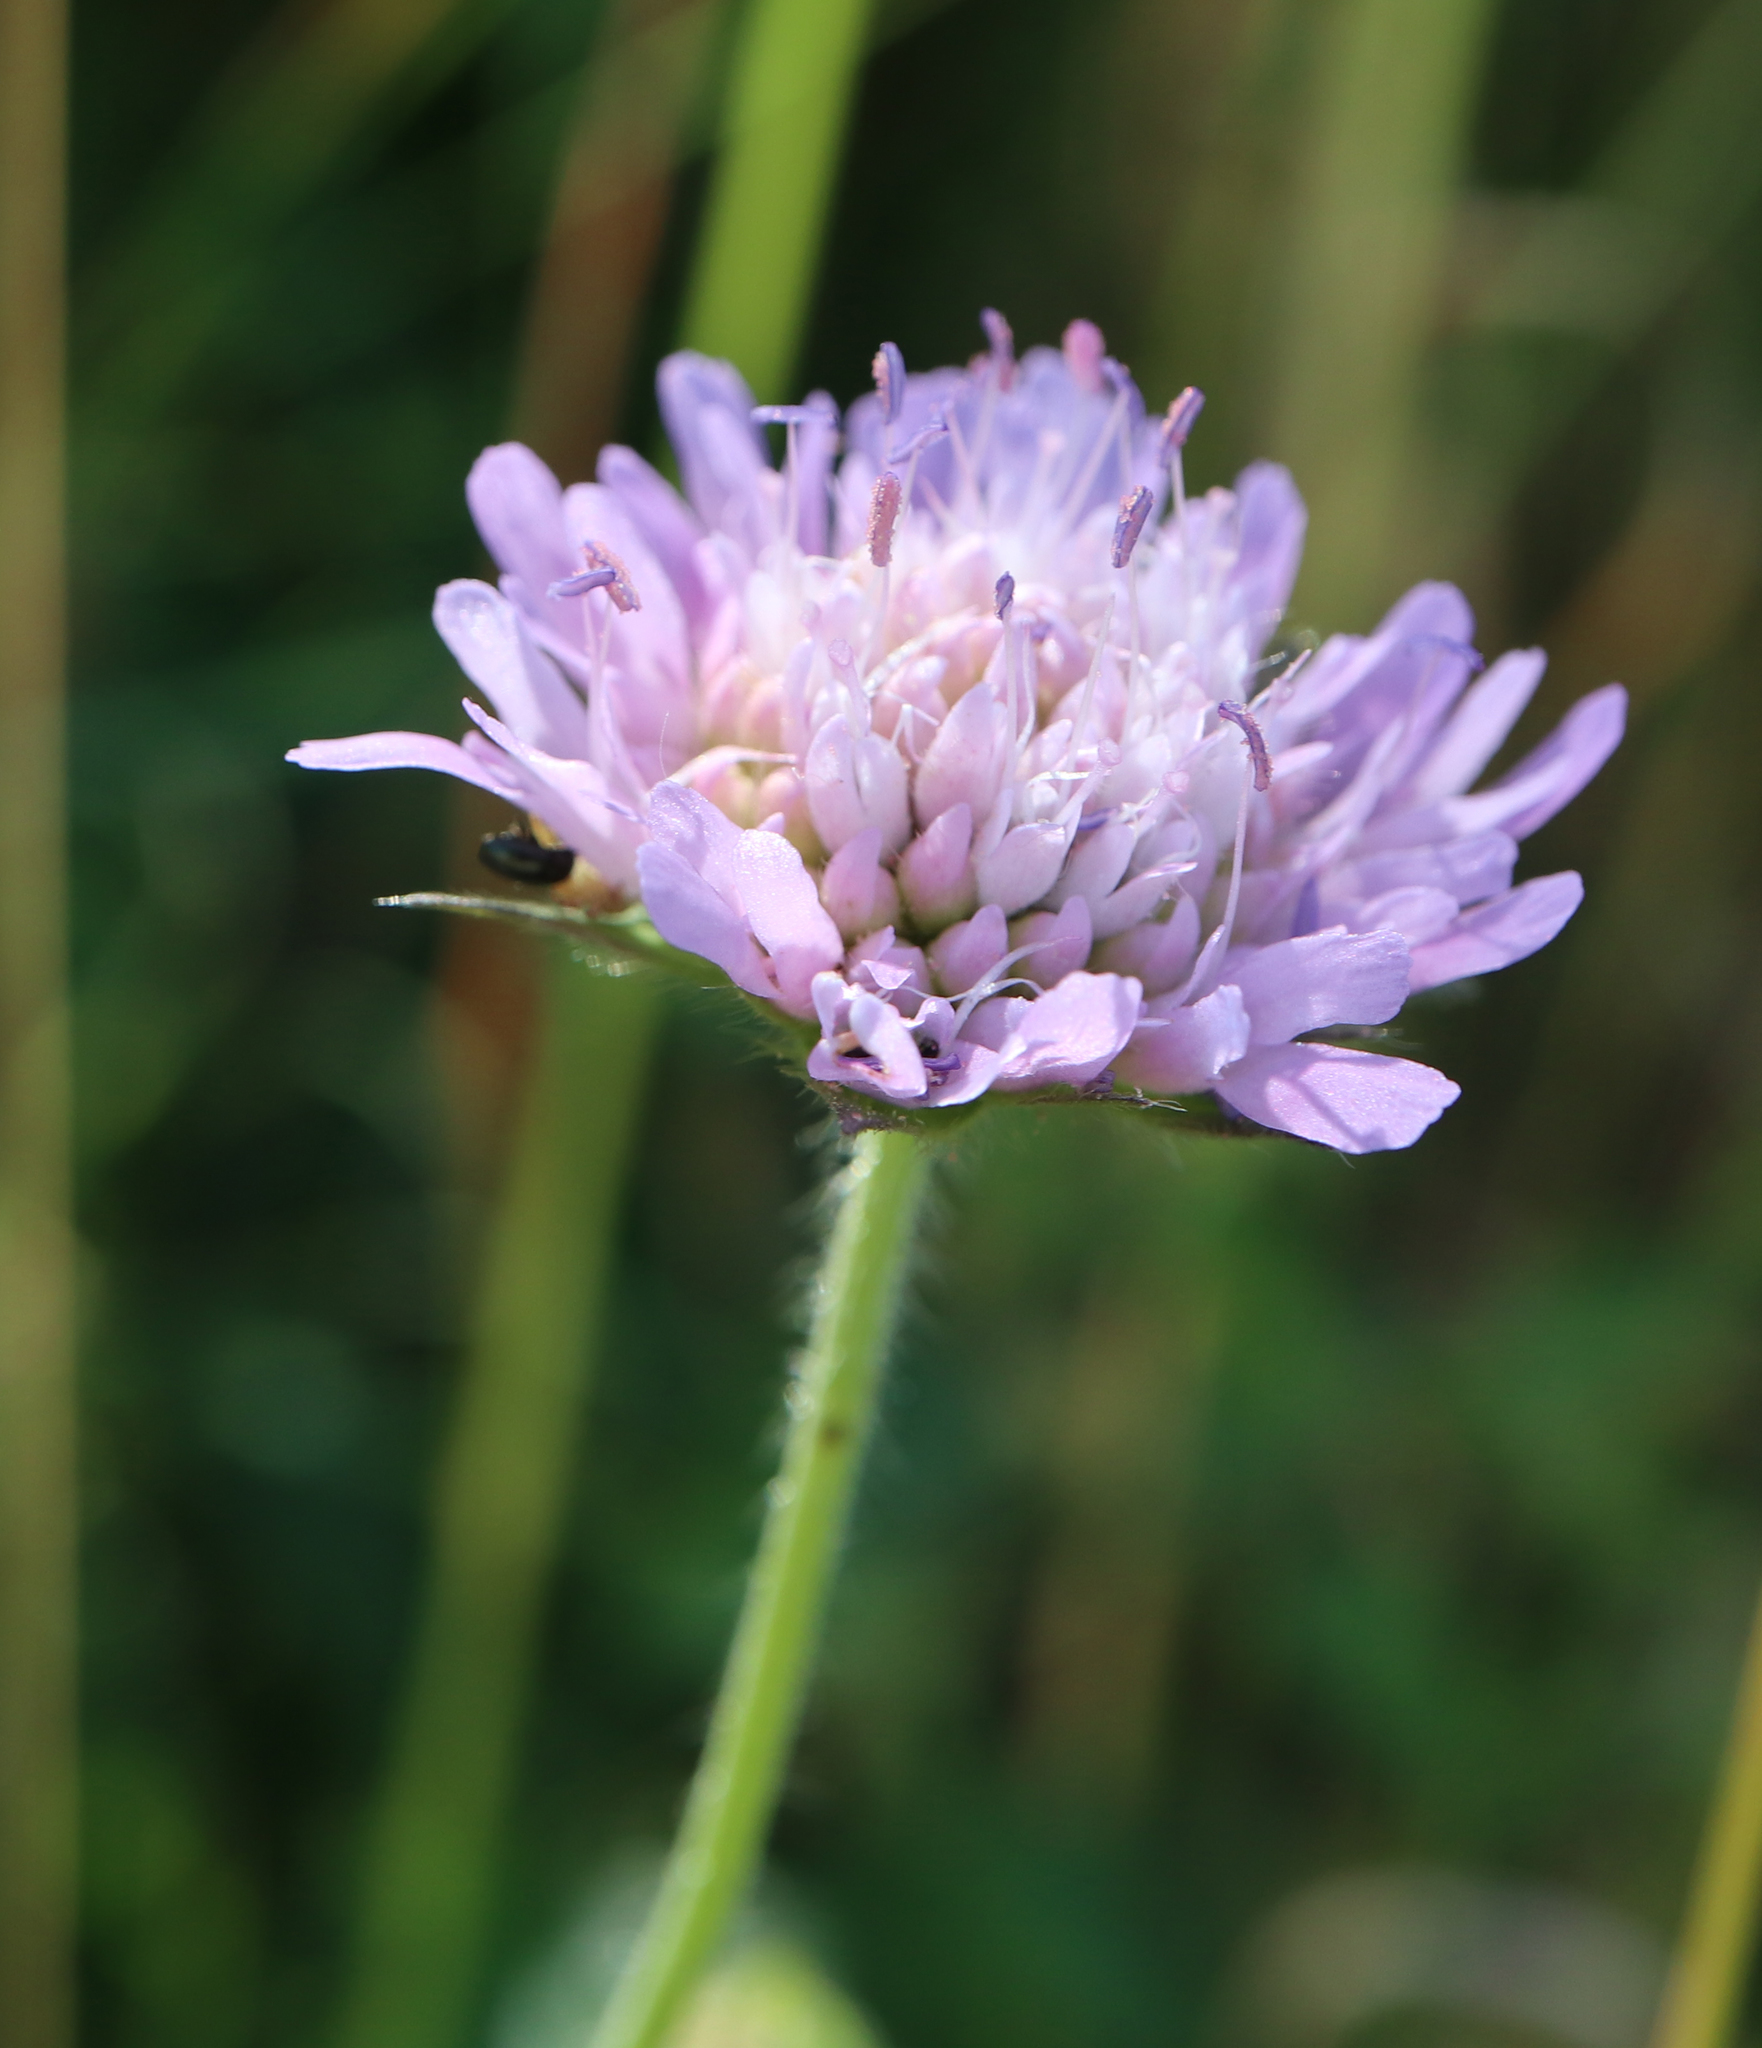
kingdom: Plantae
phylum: Tracheophyta
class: Magnoliopsida
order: Dipsacales
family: Caprifoliaceae
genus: Knautia
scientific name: Knautia arvensis
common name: Field scabiosa
